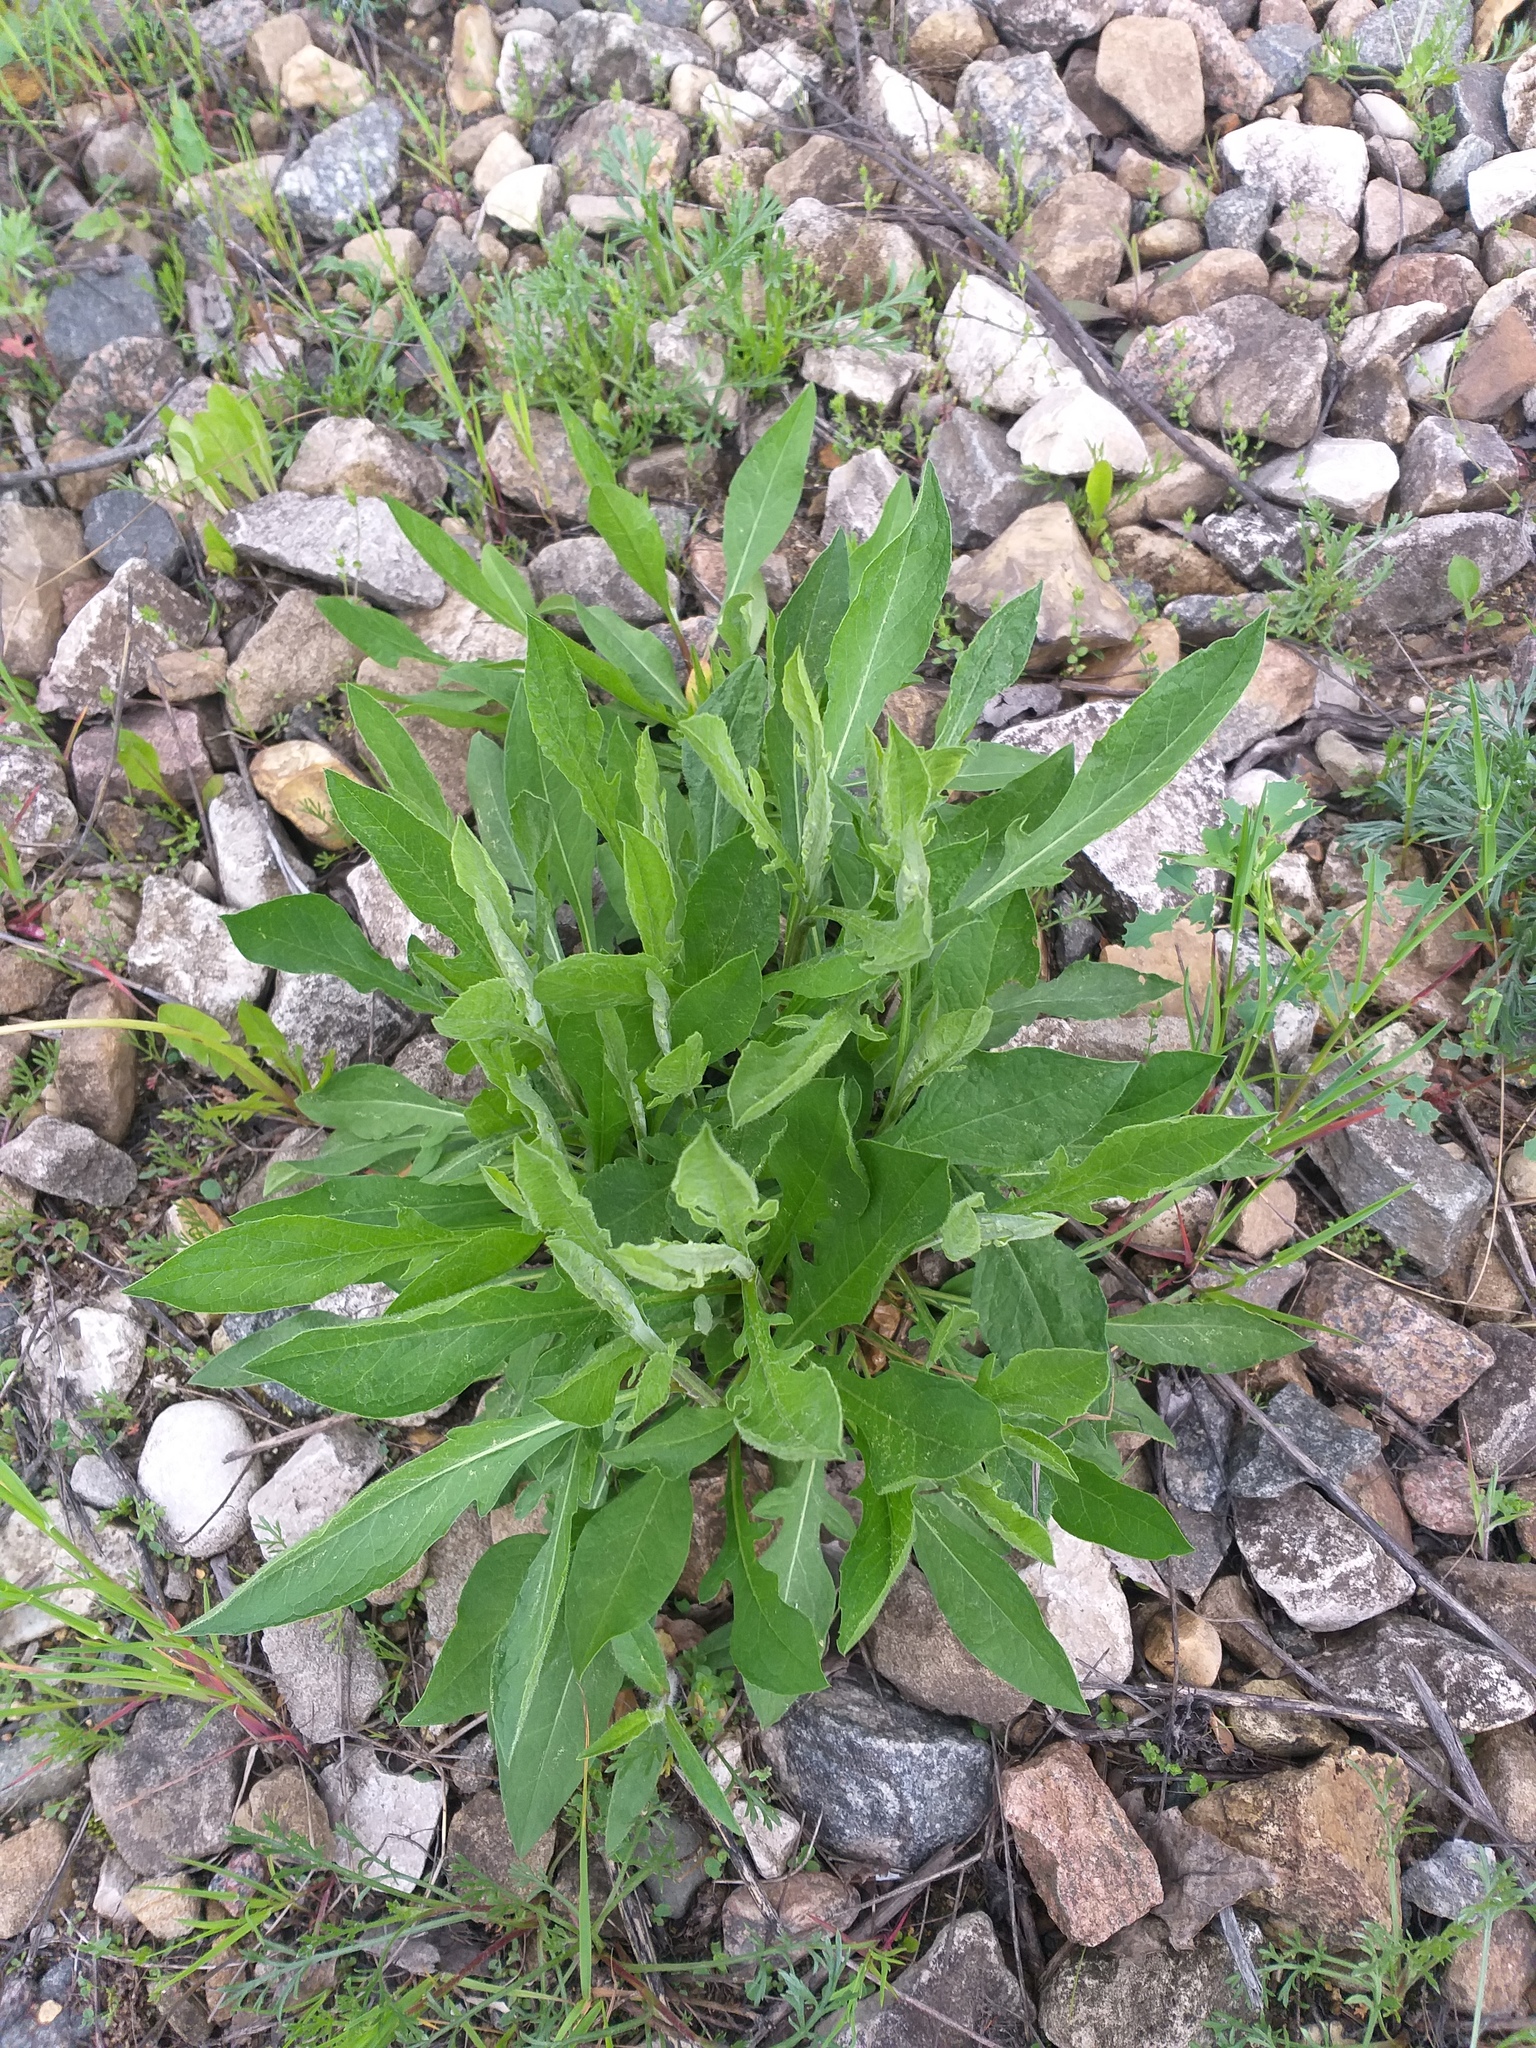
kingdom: Plantae
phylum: Tracheophyta
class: Magnoliopsida
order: Asterales
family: Asteraceae
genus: Centaurea
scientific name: Centaurea jacea
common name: Brown knapweed
